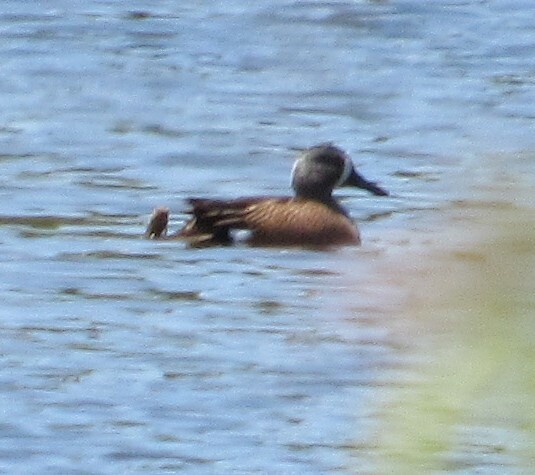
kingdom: Animalia
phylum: Chordata
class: Aves
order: Anseriformes
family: Anatidae
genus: Spatula
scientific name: Spatula discors
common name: Blue-winged teal
